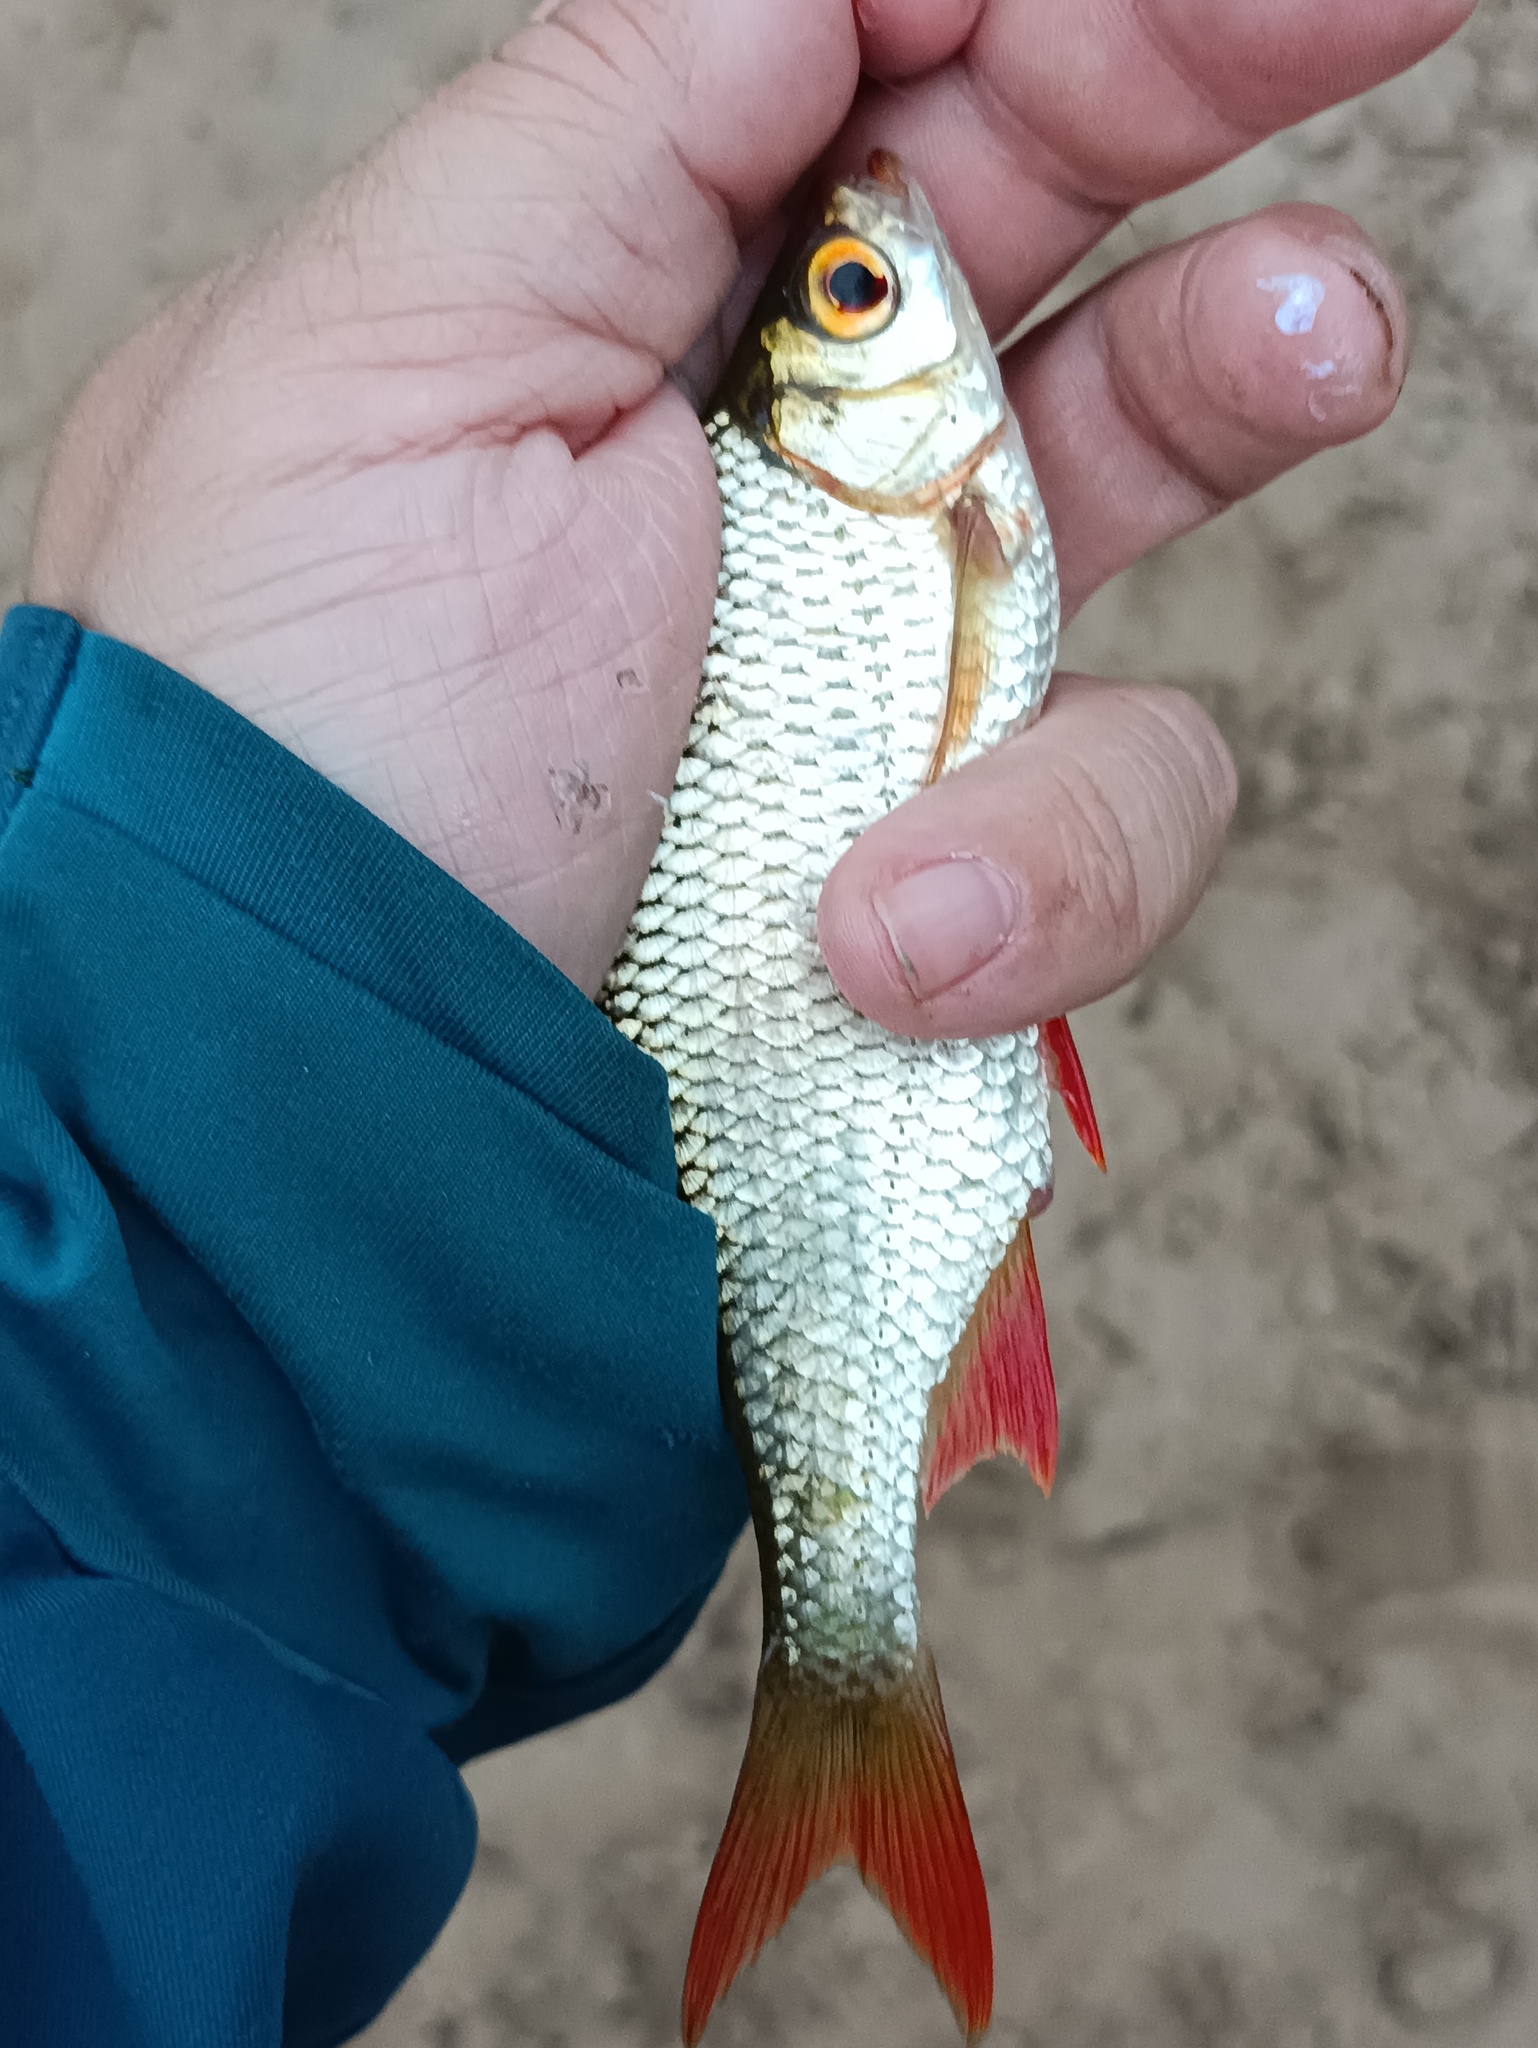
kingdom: Animalia
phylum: Chordata
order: Cypriniformes
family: Cyprinidae
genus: Scardinius
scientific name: Scardinius erythrophthalmus
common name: Rudd
